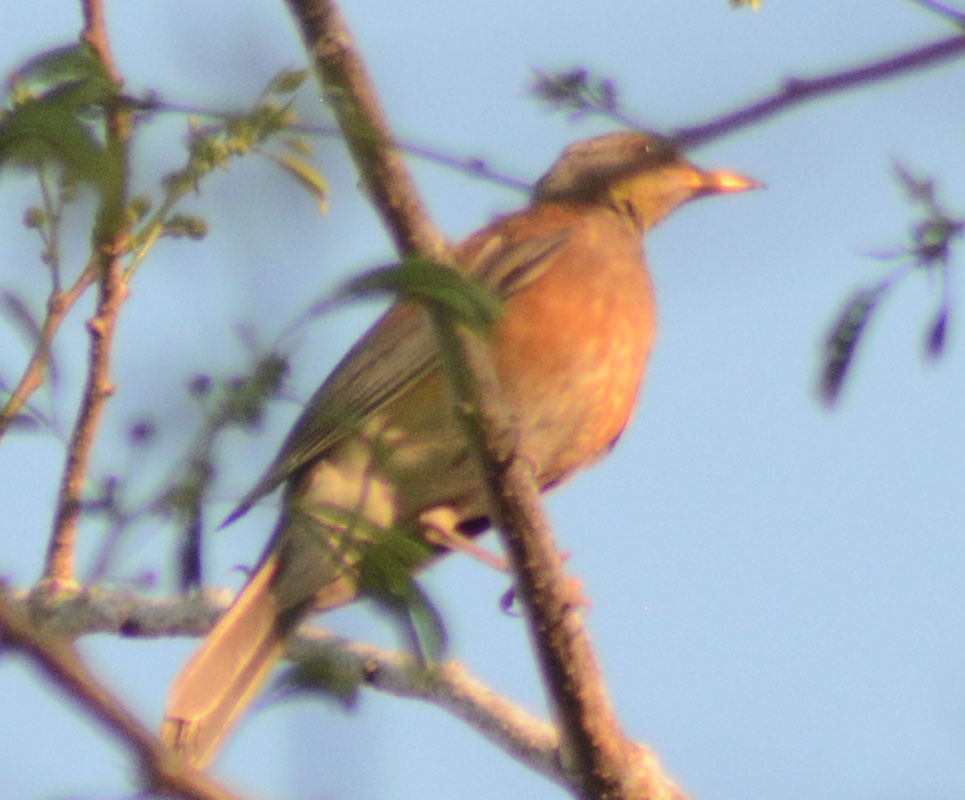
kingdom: Animalia
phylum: Chordata
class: Aves
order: Passeriformes
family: Turdidae
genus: Turdus
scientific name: Turdus rufopalliatus
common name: Rufous-backed robin
